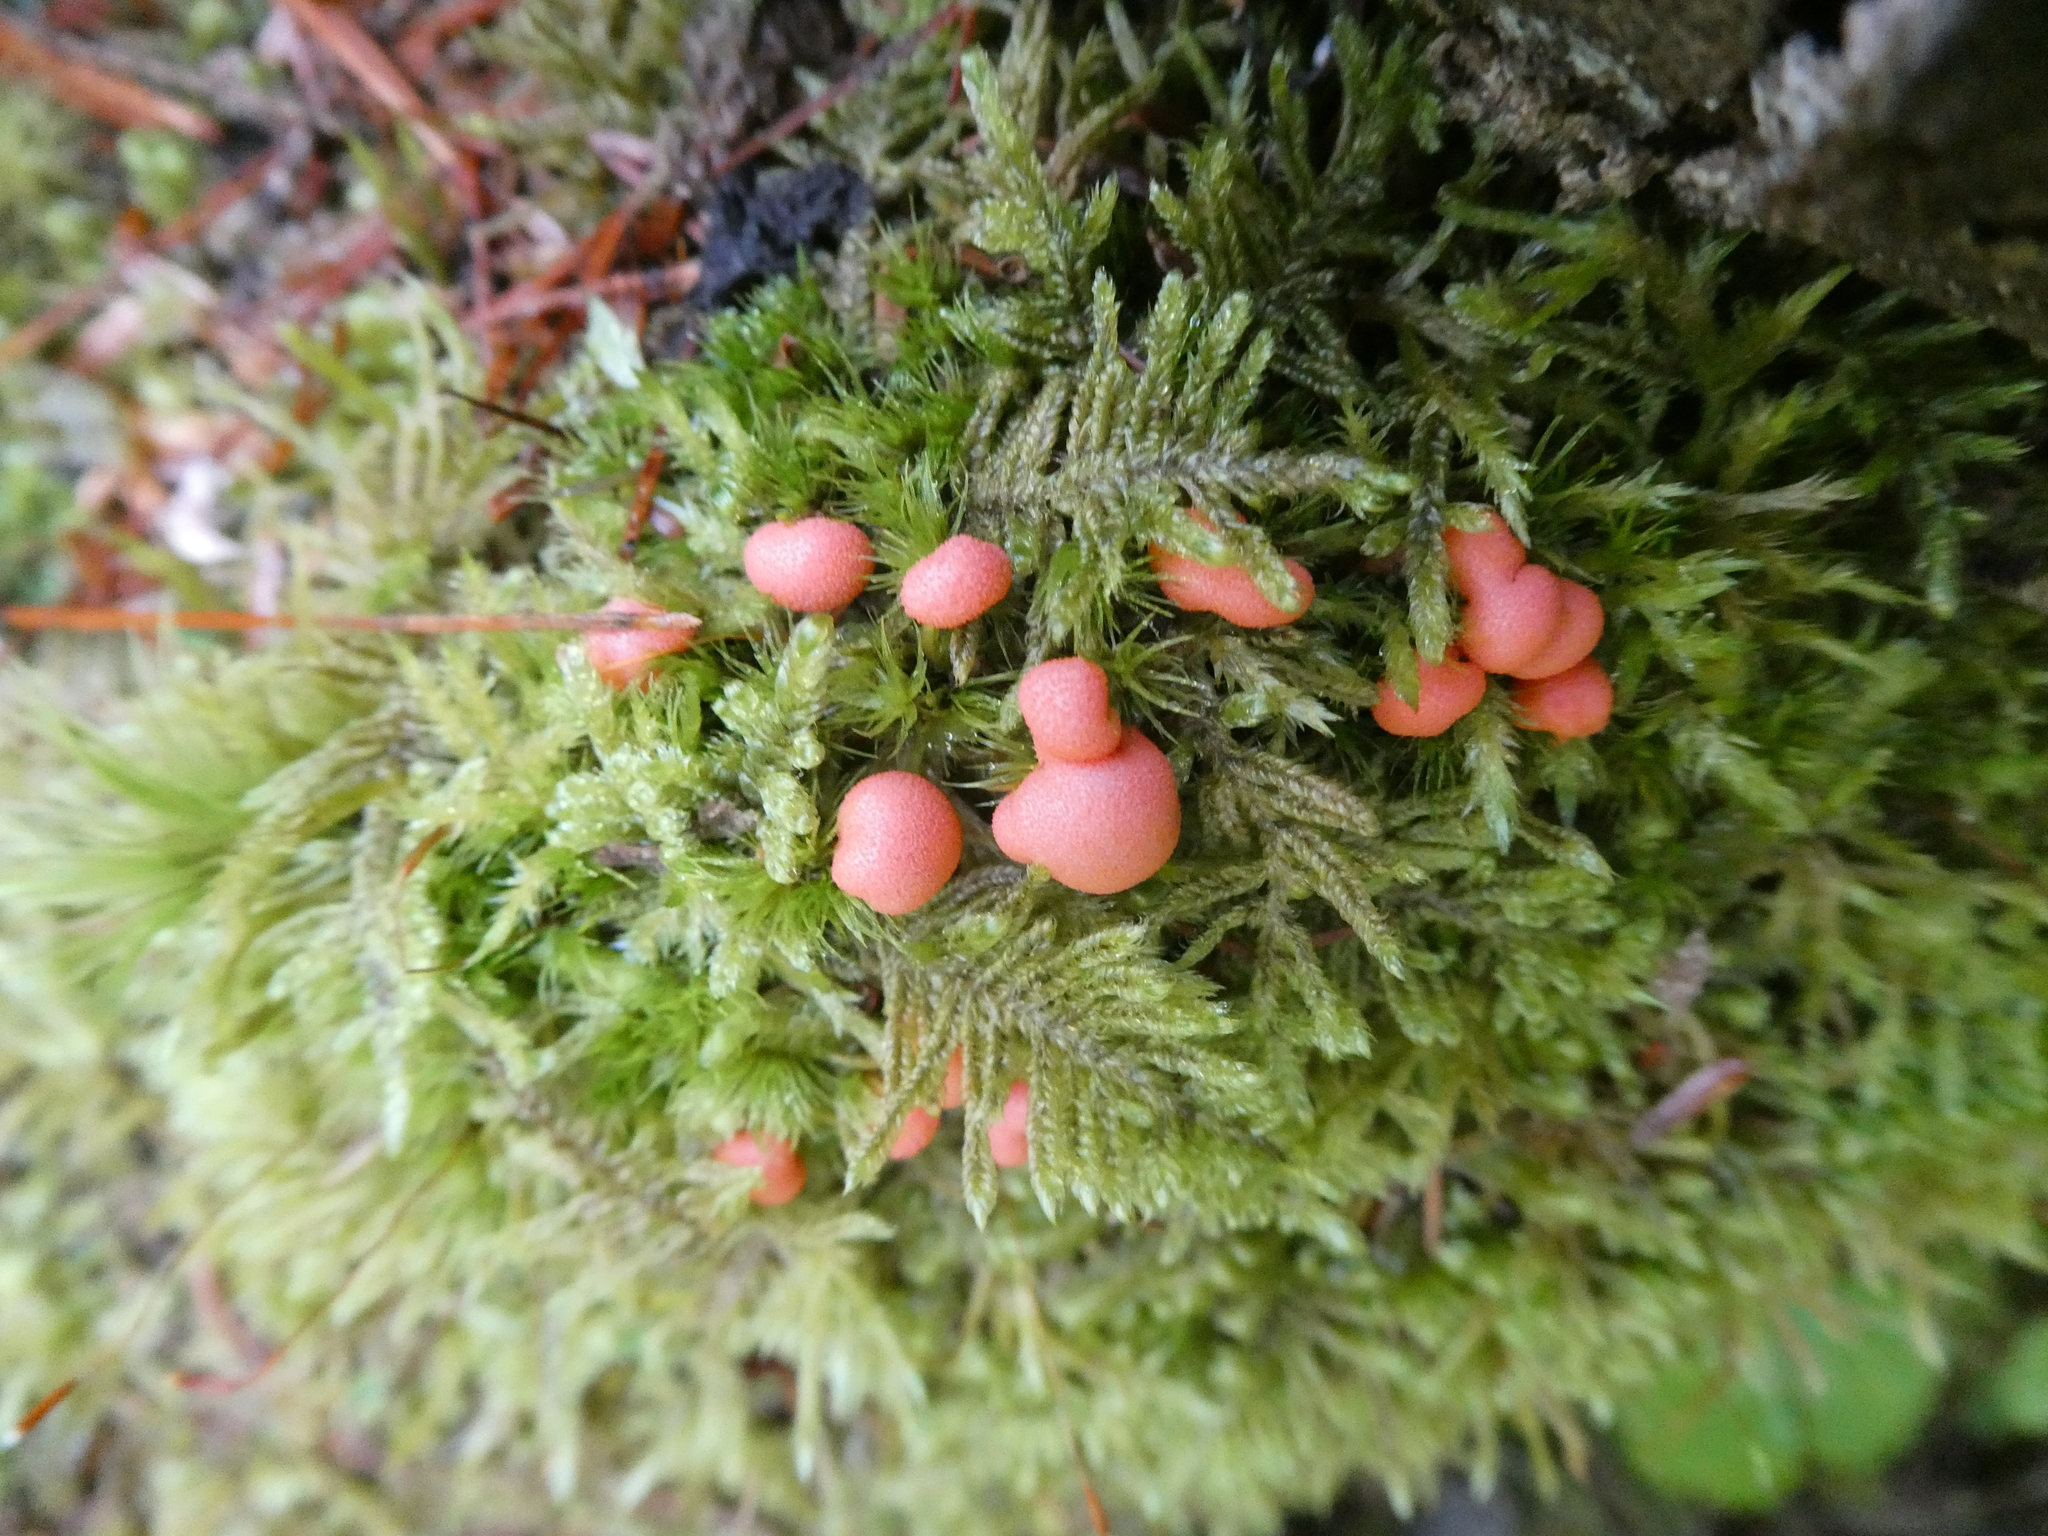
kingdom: Protozoa
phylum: Mycetozoa
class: Myxomycetes
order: Cribrariales
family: Tubiferaceae
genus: Lycogala
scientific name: Lycogala epidendrum
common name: Wolf's milk
